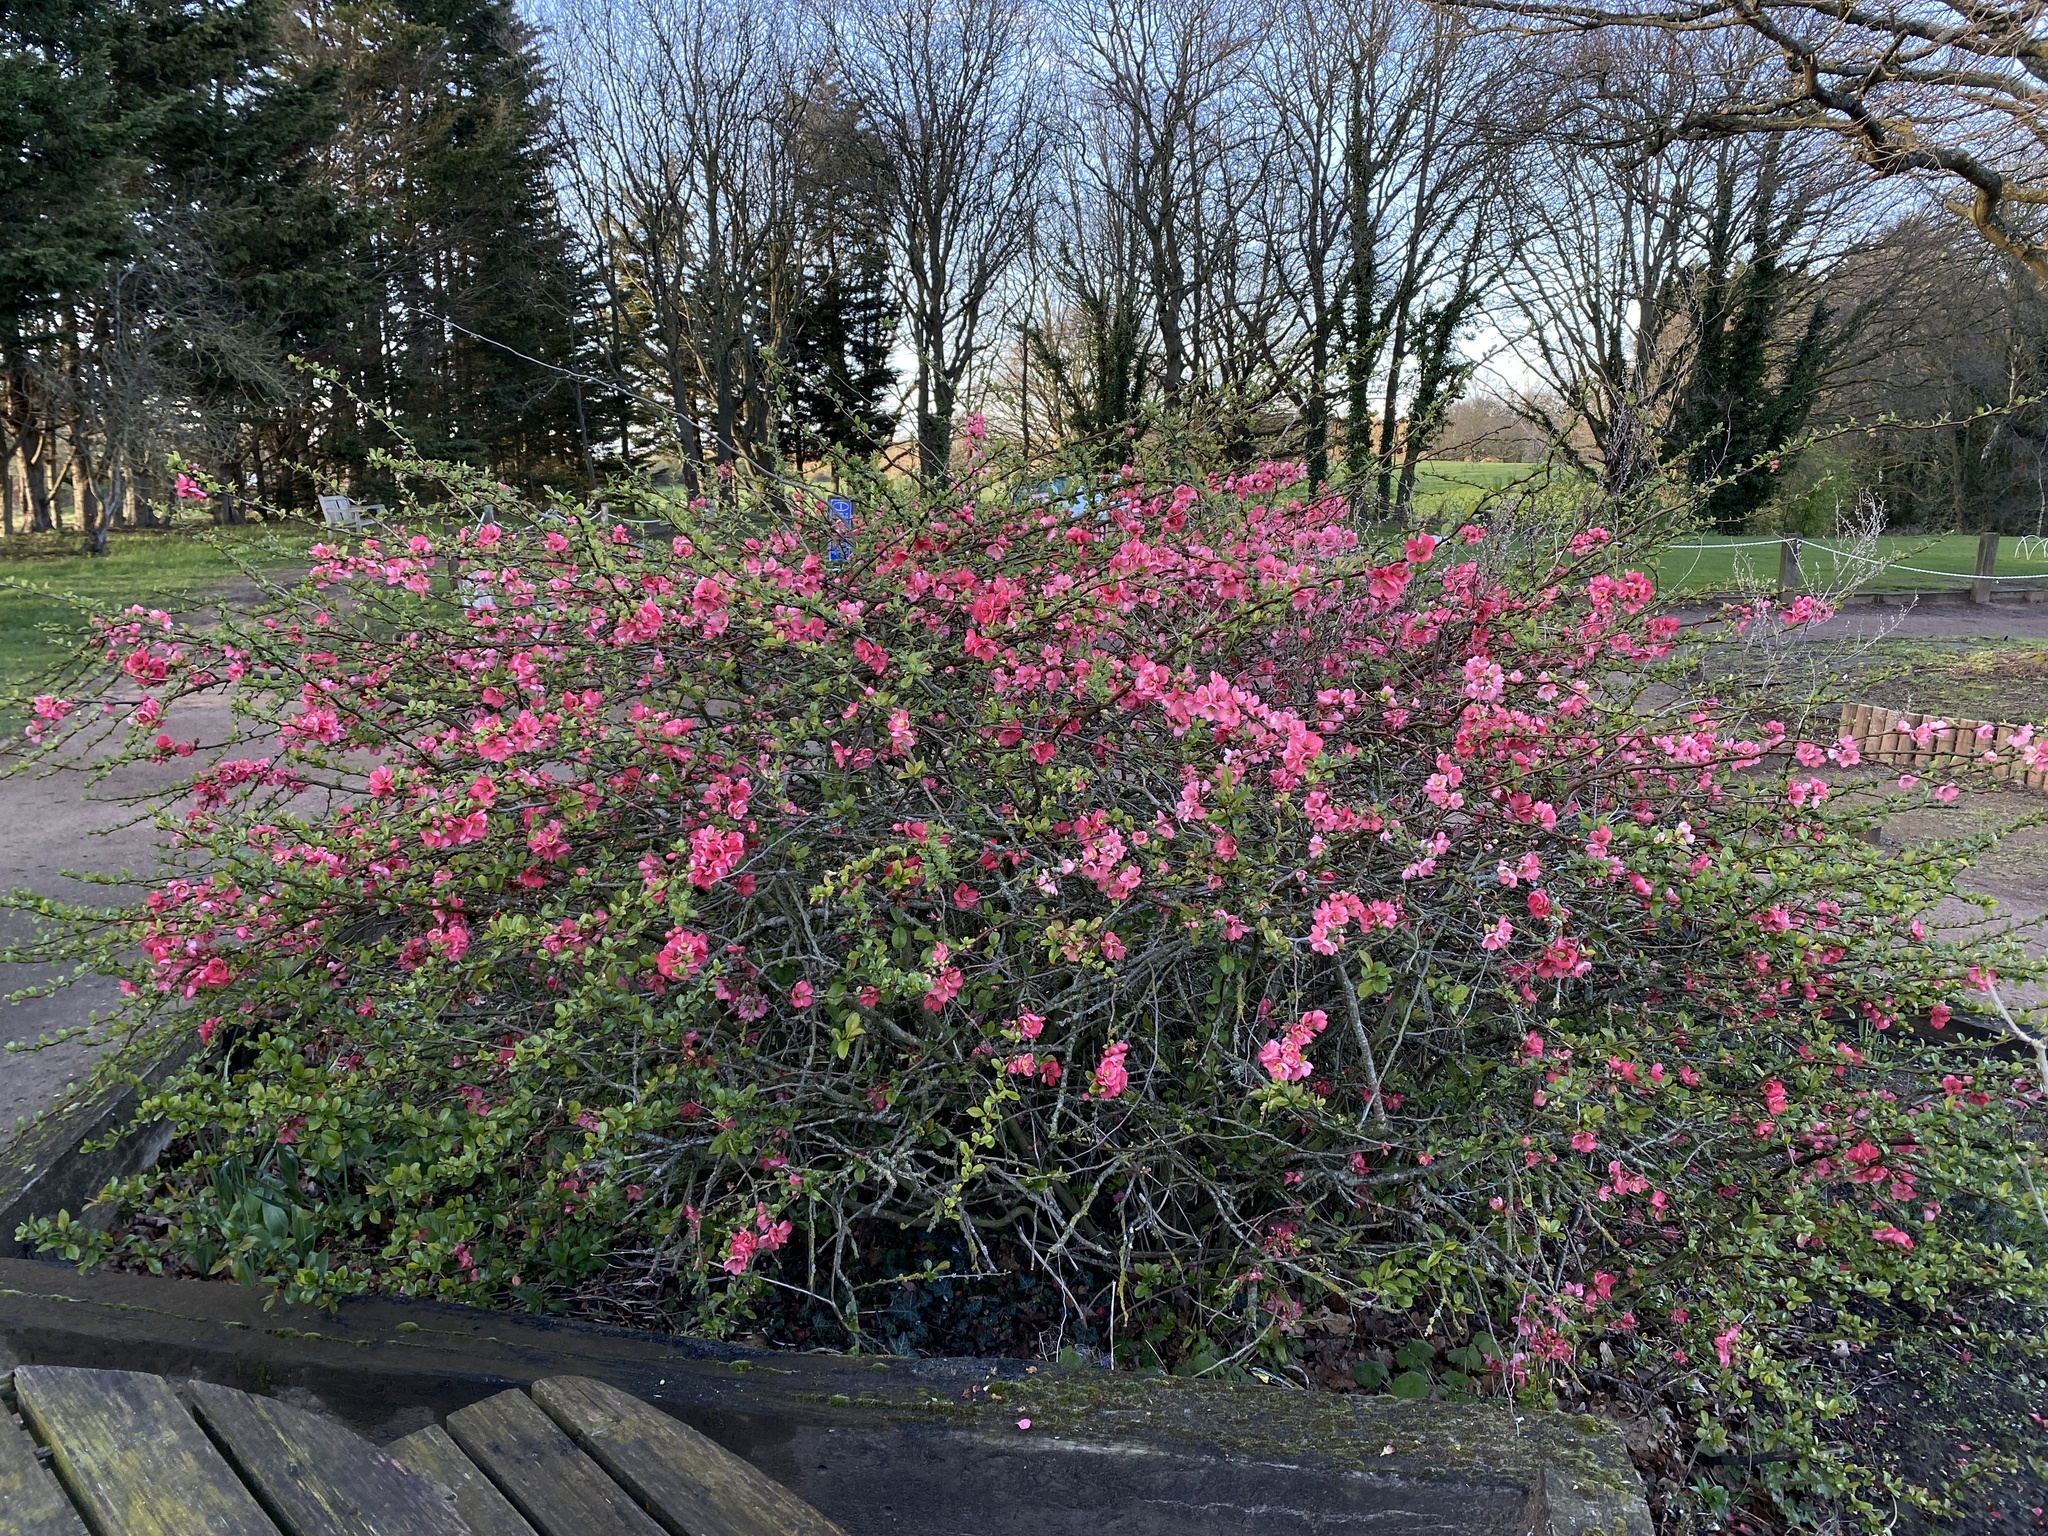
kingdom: Plantae
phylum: Tracheophyta
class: Magnoliopsida
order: Rosales
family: Rosaceae
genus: Chaenomeles
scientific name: Chaenomeles speciosa
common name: Japanese quince
